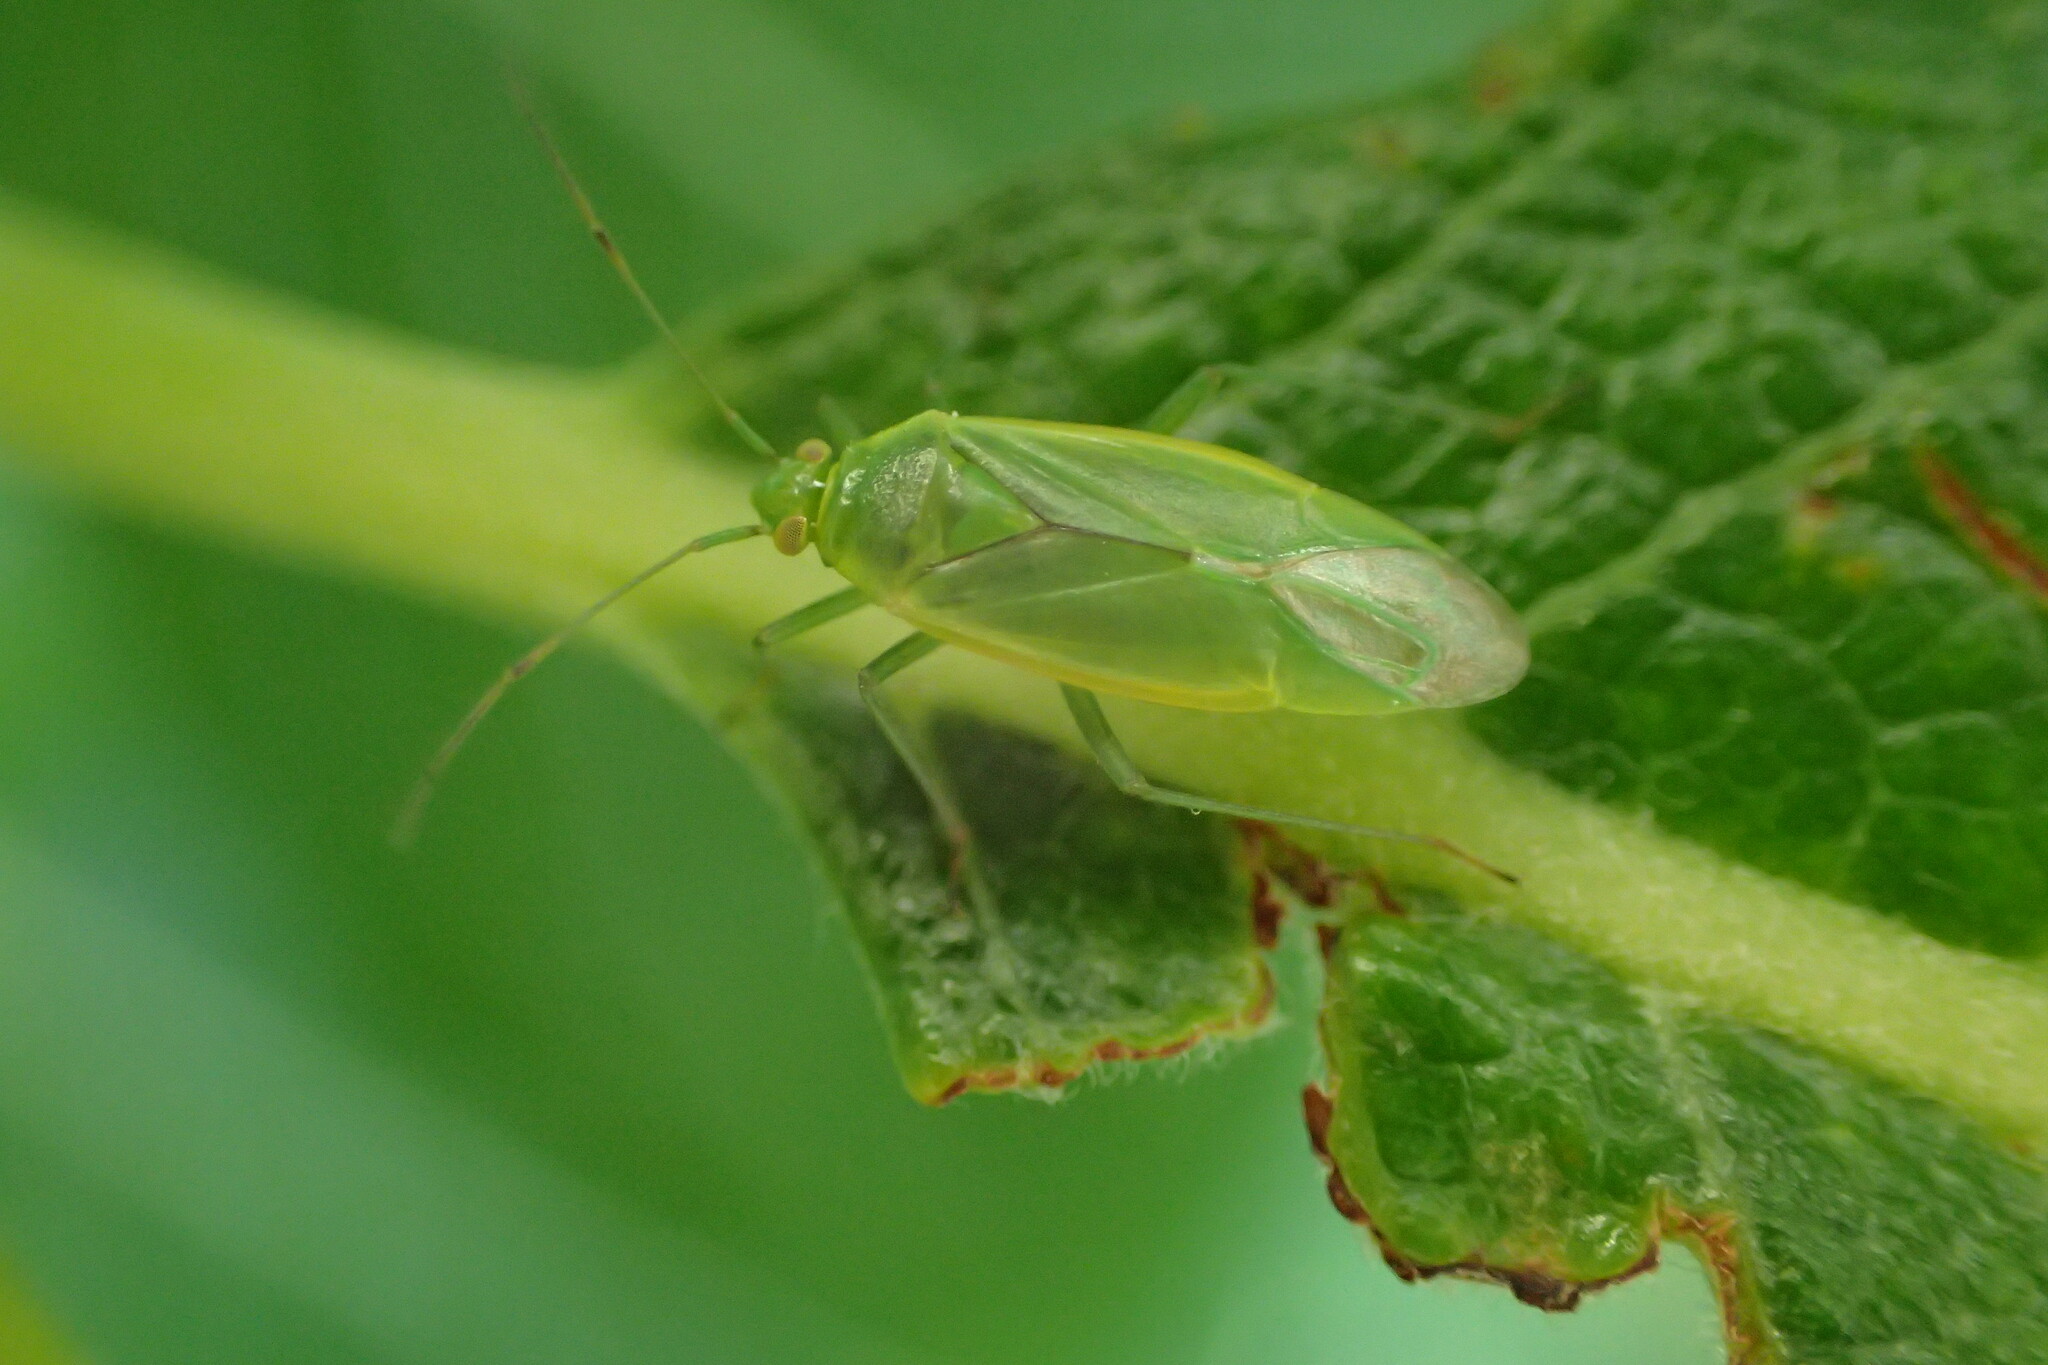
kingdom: Animalia
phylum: Arthropoda
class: Insecta
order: Hemiptera
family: Miridae
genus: Lygocoris
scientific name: Lygocoris rugicollis
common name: Apple capsid
